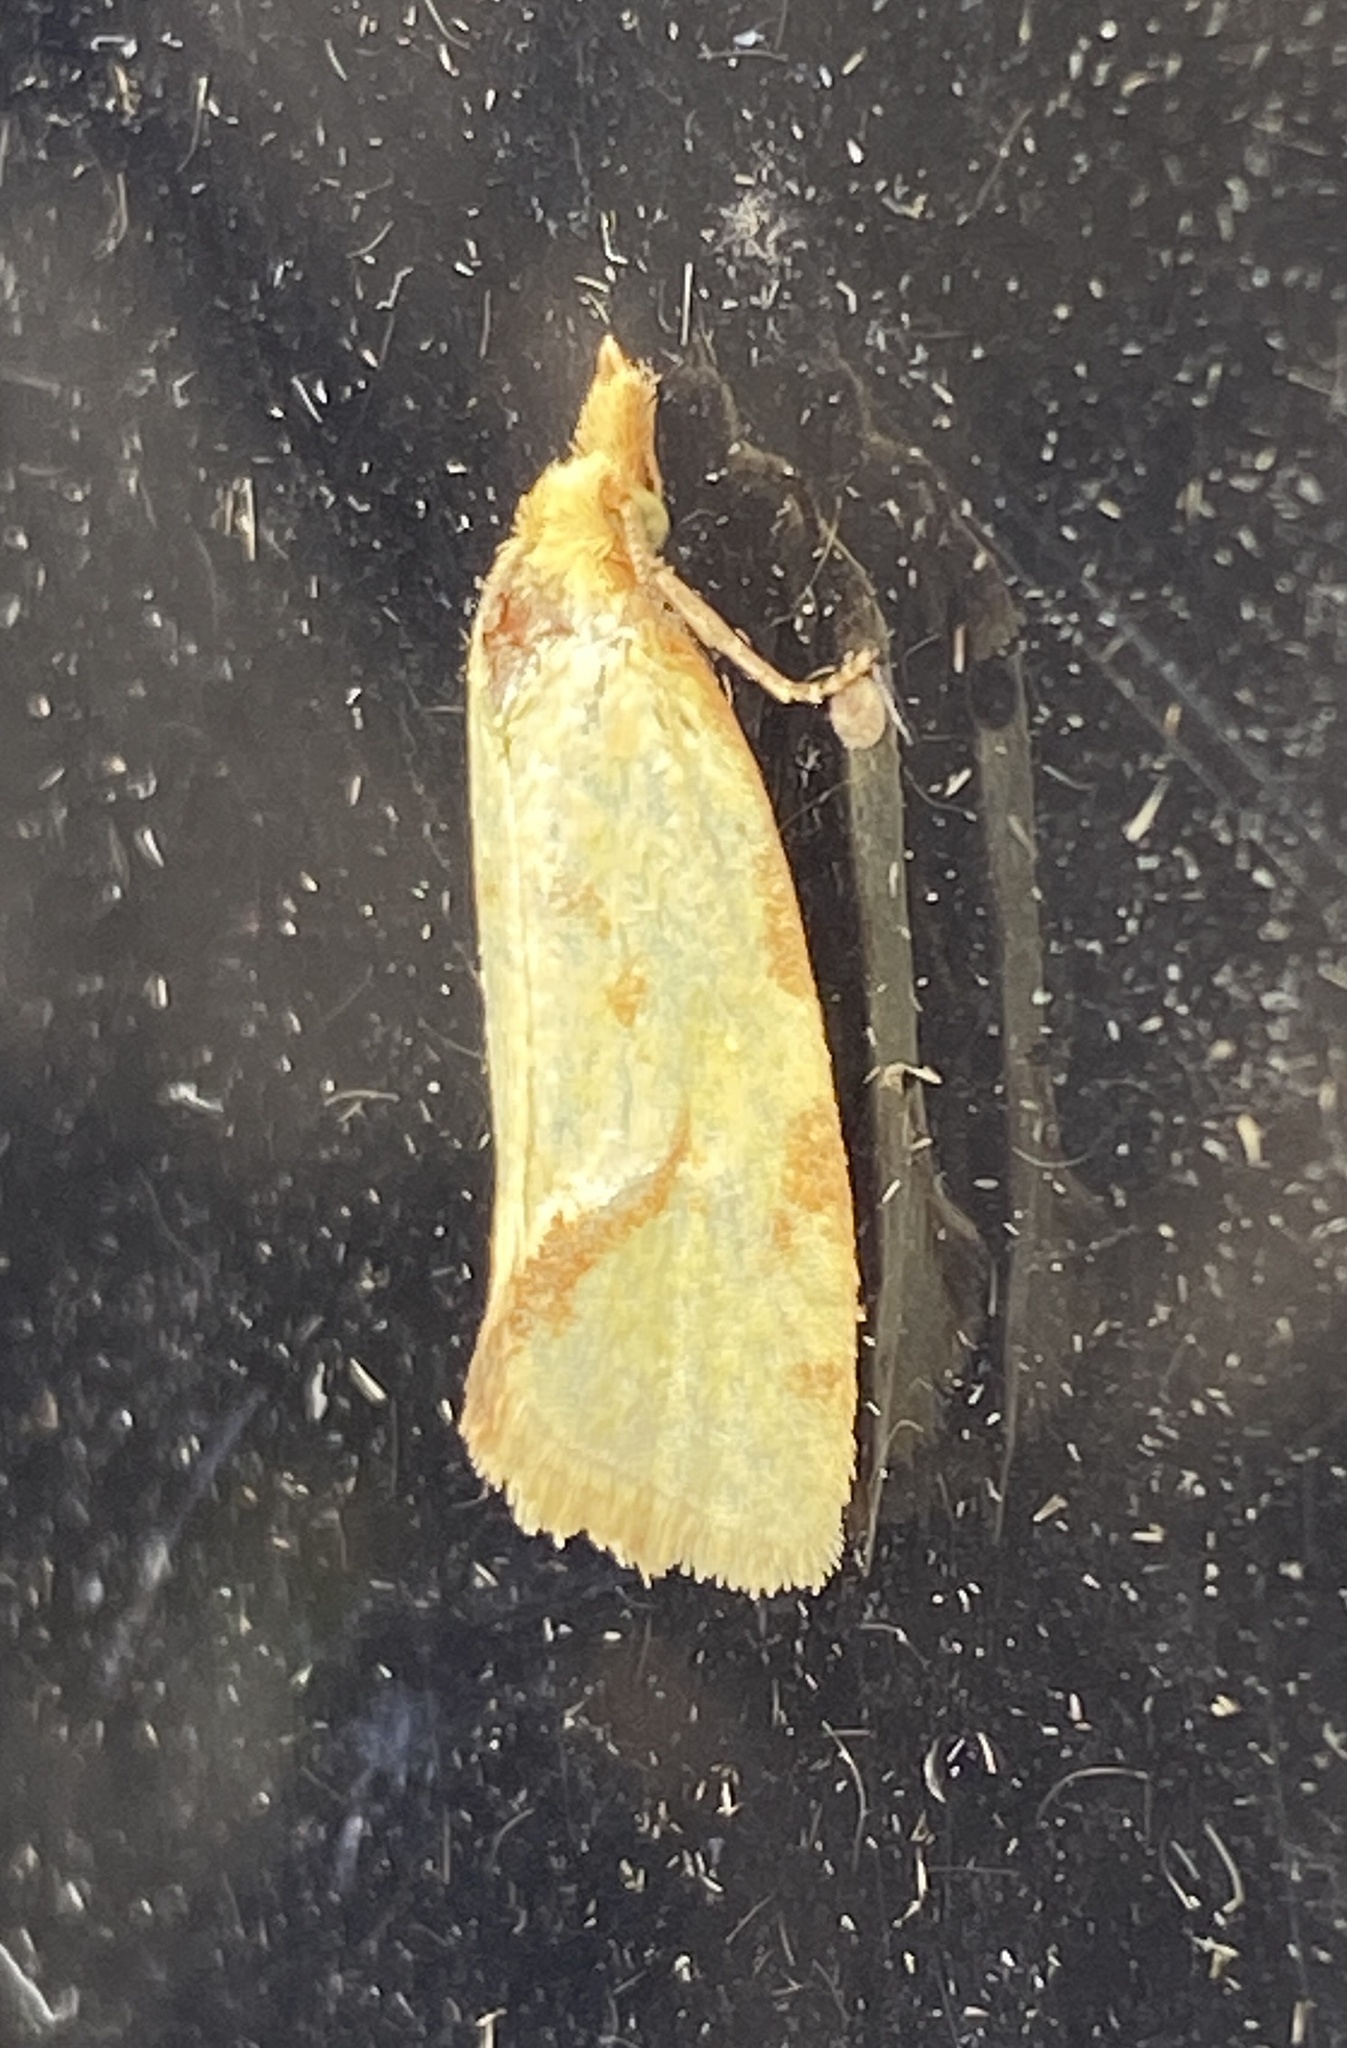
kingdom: Animalia
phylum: Arthropoda
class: Insecta
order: Lepidoptera
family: Tortricidae
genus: Agapeta
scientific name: Agapeta hamana
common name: Common yellow conch
